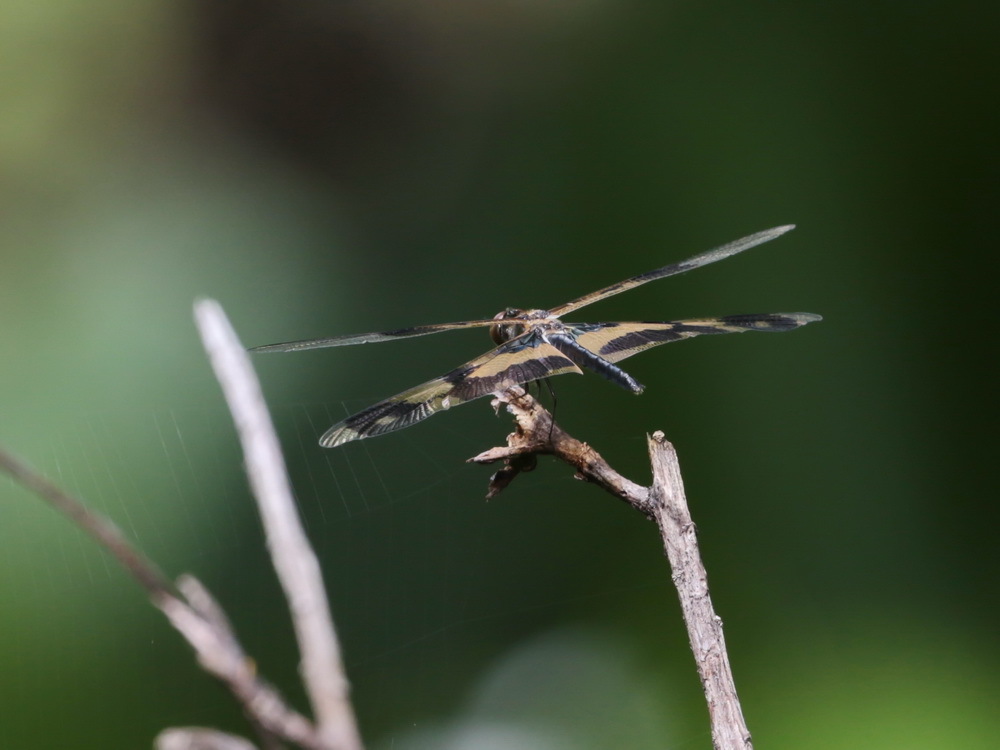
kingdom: Animalia
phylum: Arthropoda
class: Insecta
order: Odonata
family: Libellulidae
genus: Rhyothemis
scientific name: Rhyothemis variegata
